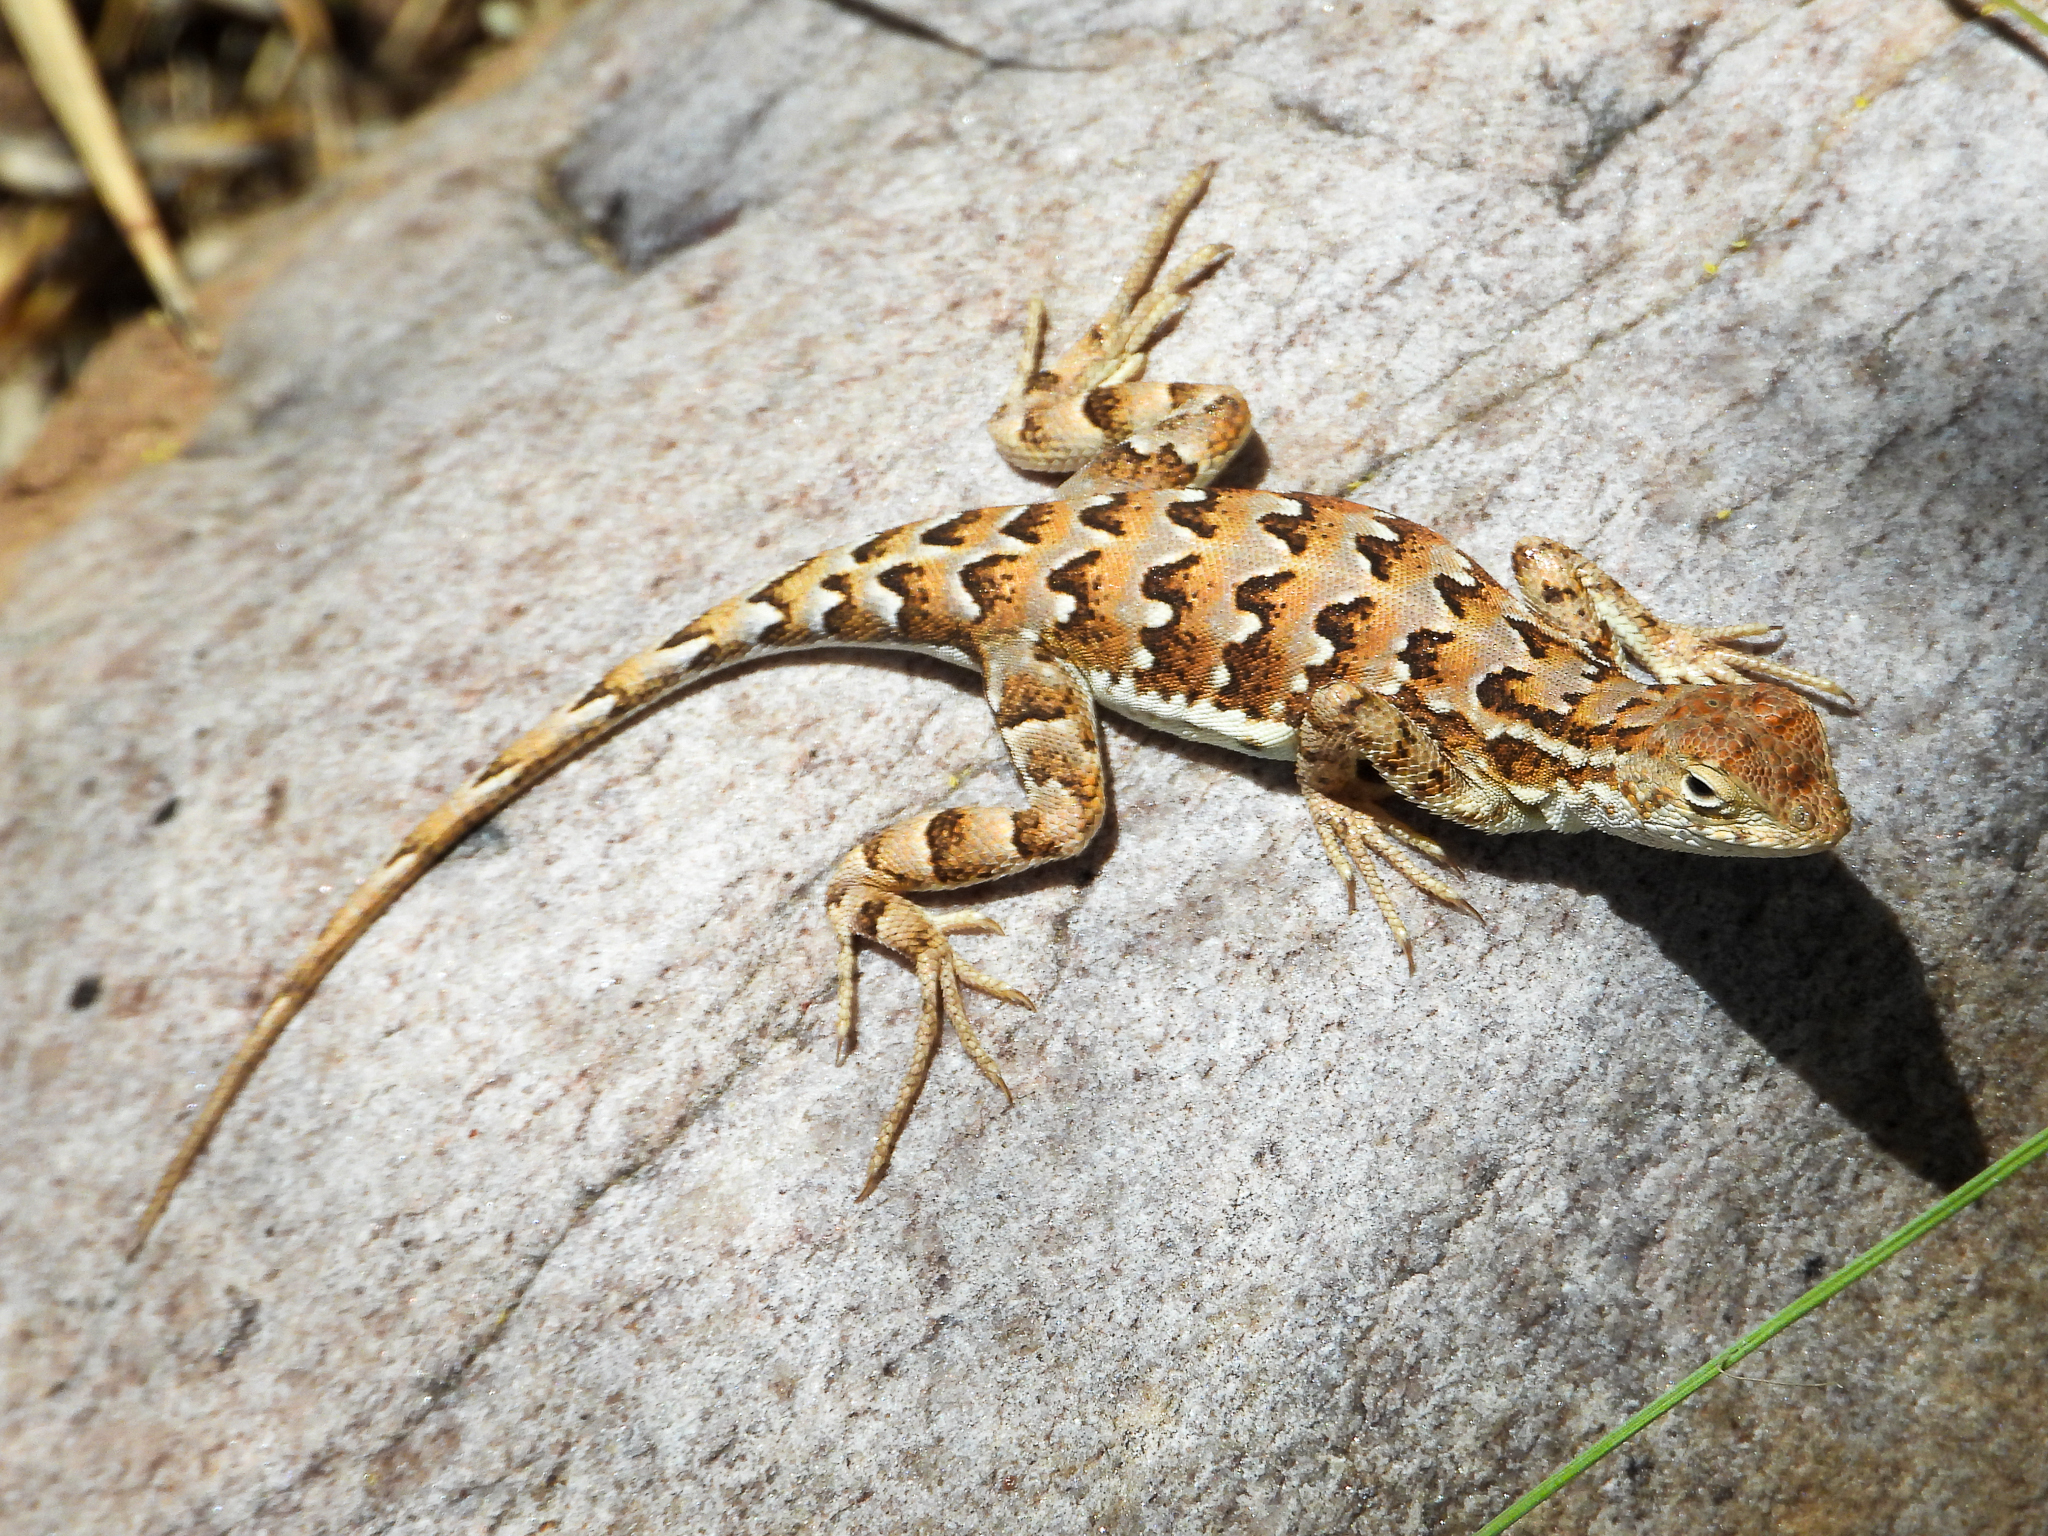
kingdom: Animalia
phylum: Chordata
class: Squamata
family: Phrynosomatidae
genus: Holbrookia
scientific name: Holbrookia elegans
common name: Elegant earless lizard
